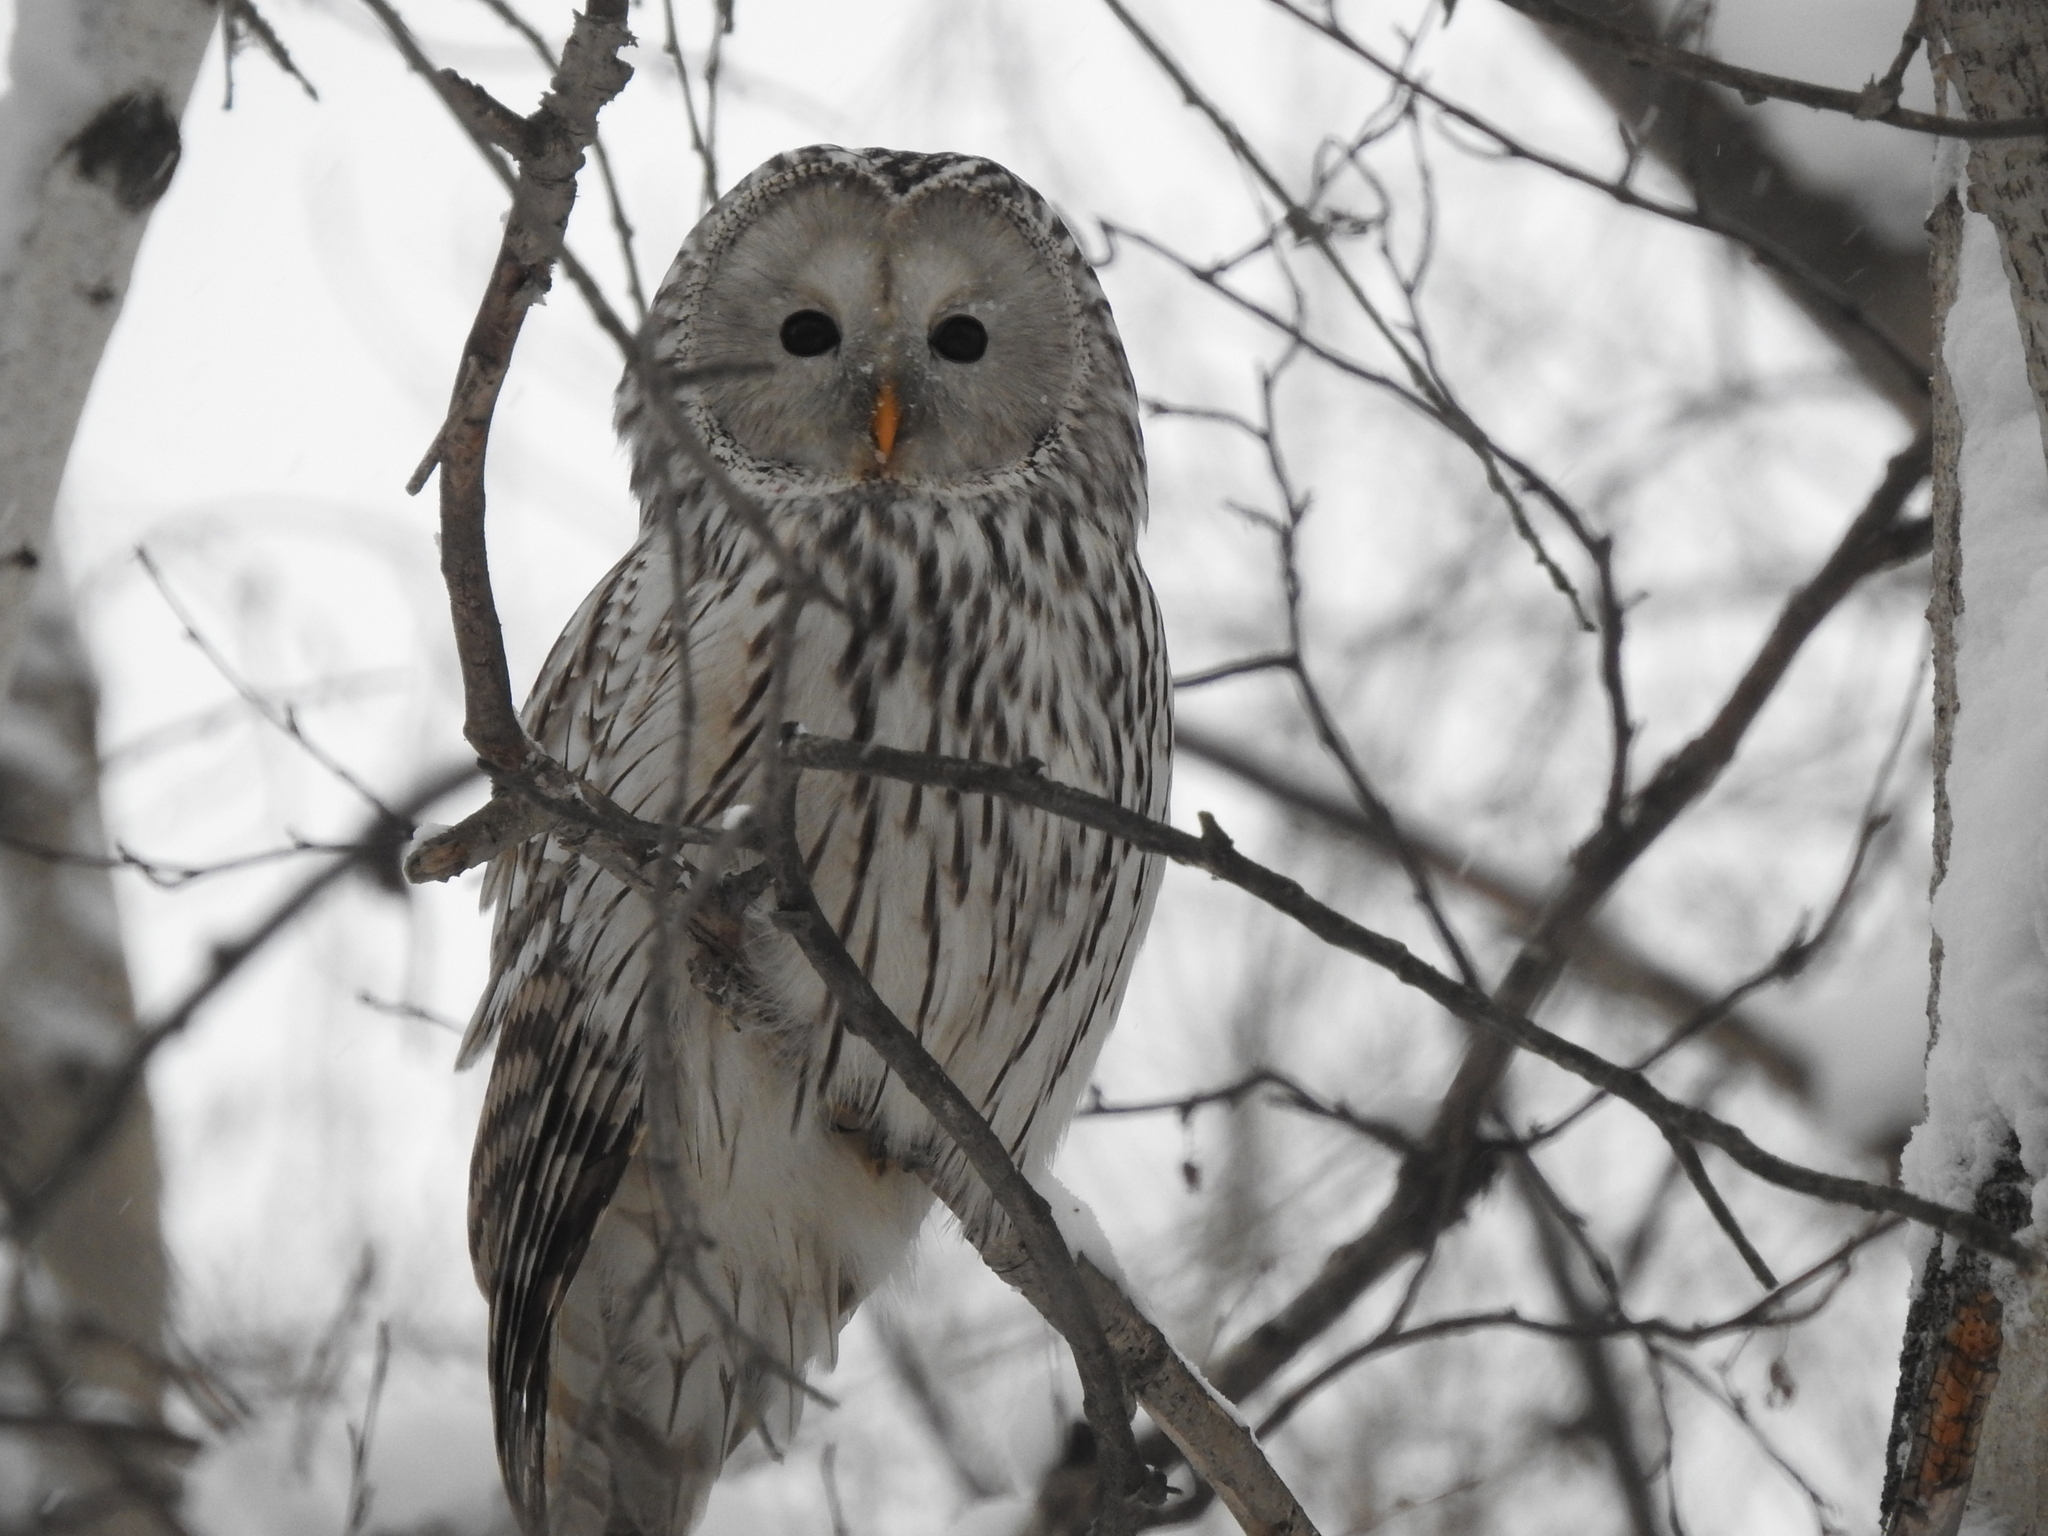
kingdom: Animalia
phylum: Chordata
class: Aves
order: Strigiformes
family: Strigidae
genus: Strix
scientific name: Strix uralensis
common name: Ural owl
